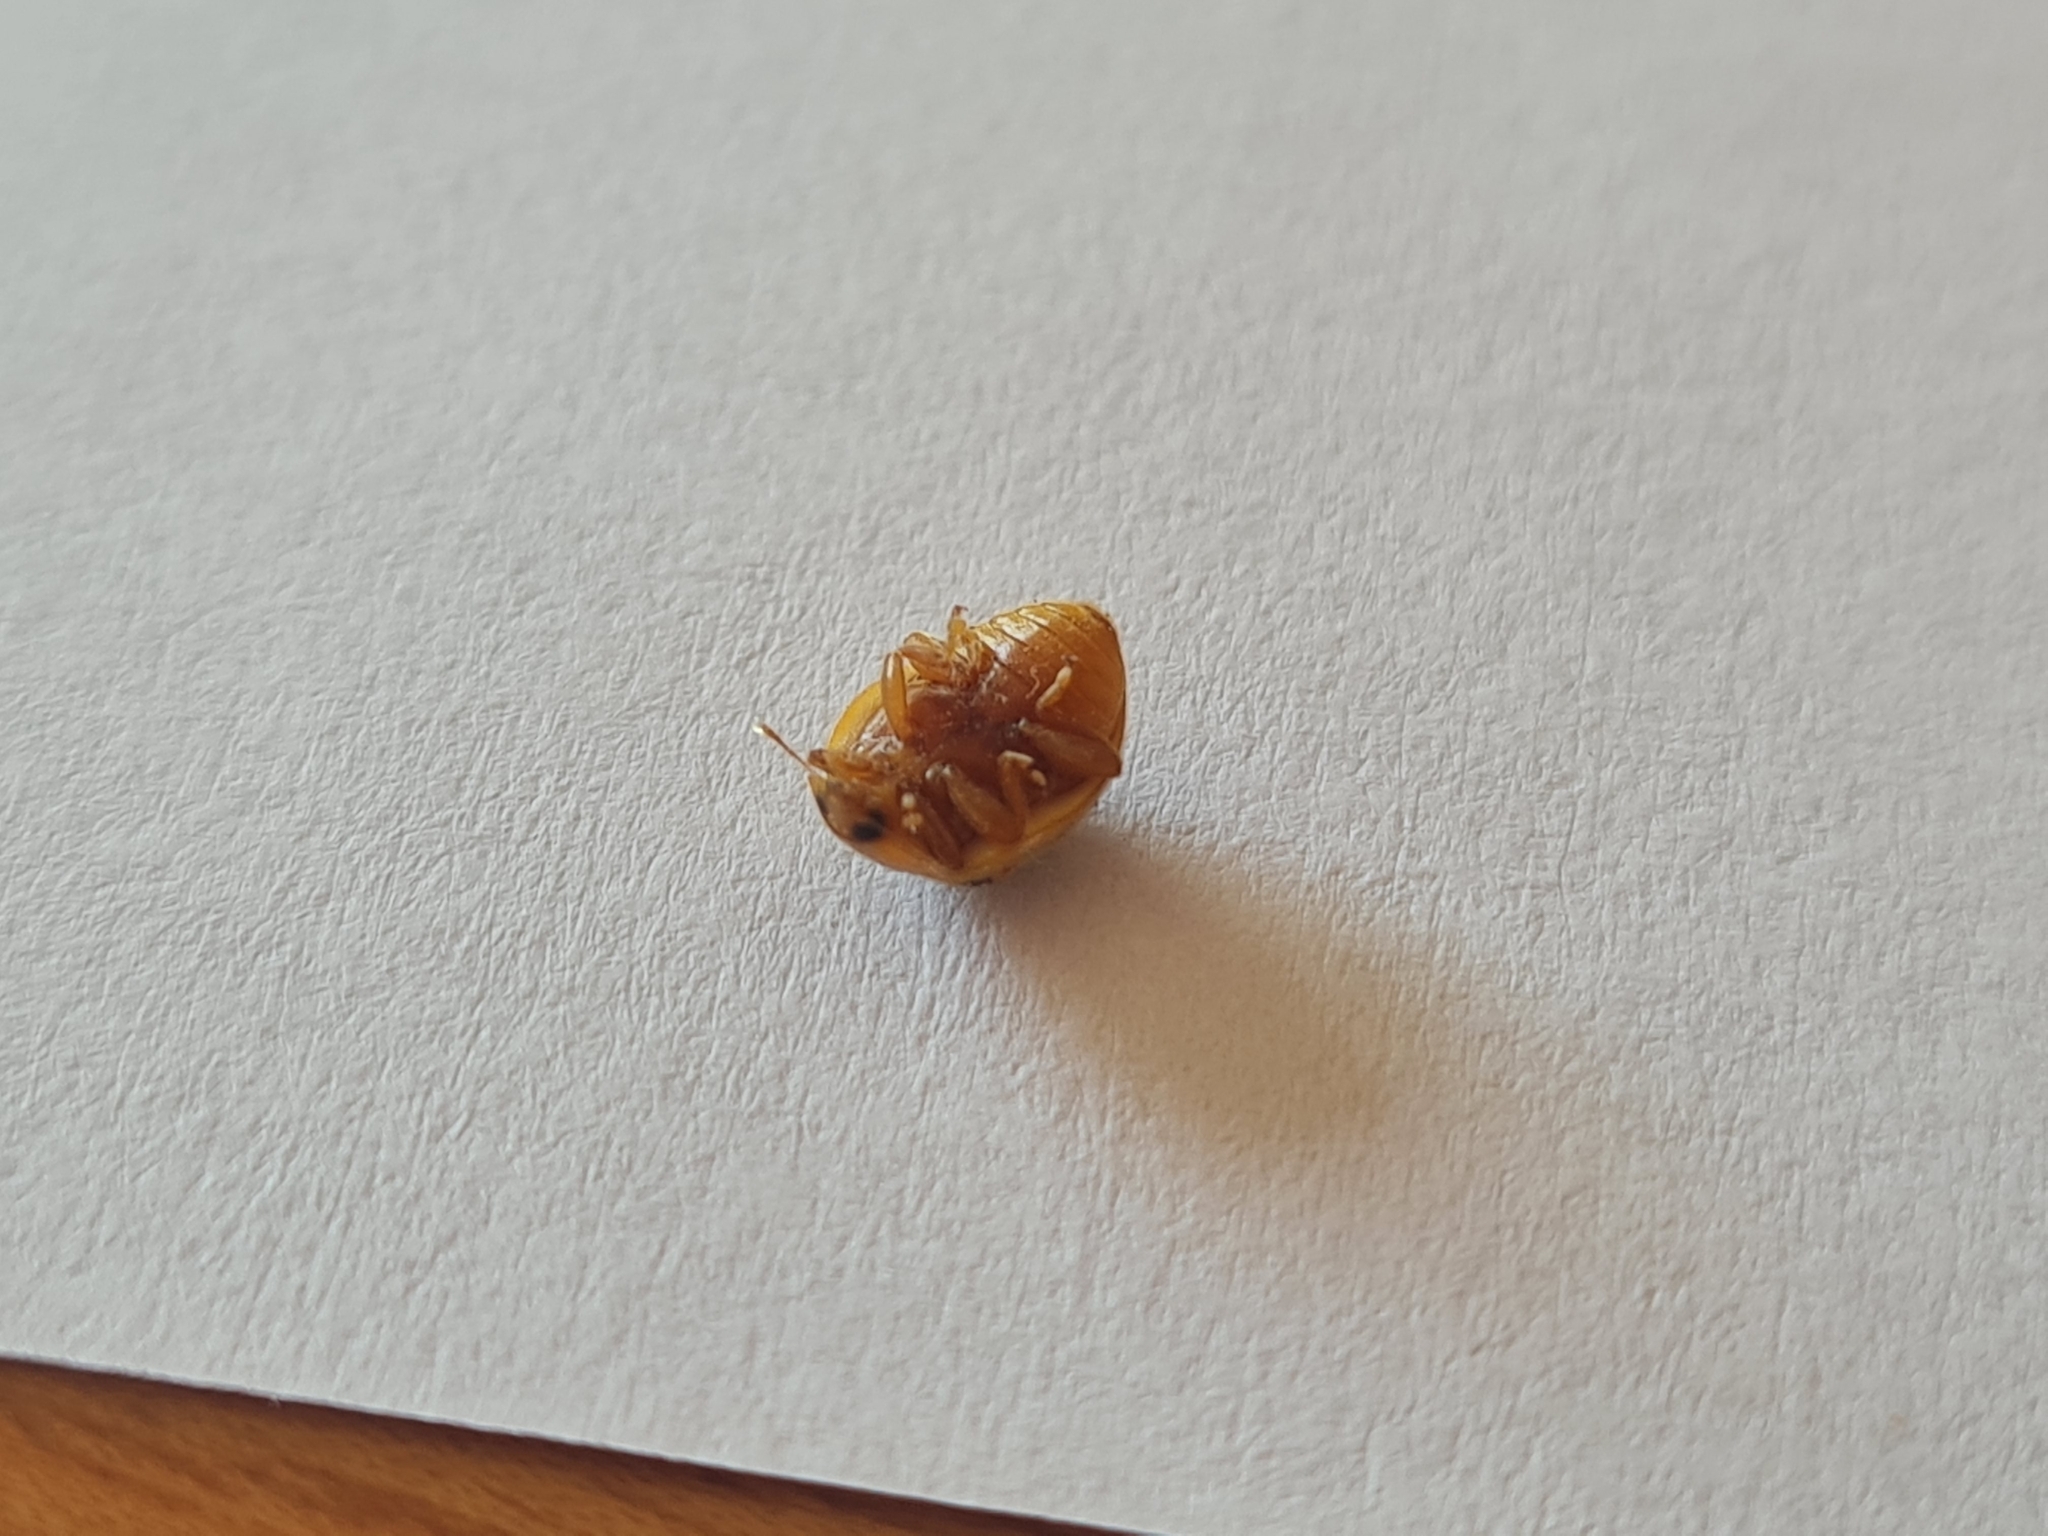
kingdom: Animalia
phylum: Arthropoda
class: Insecta
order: Coleoptera
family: Coccinellidae
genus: Eupalea
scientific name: Eupalea
